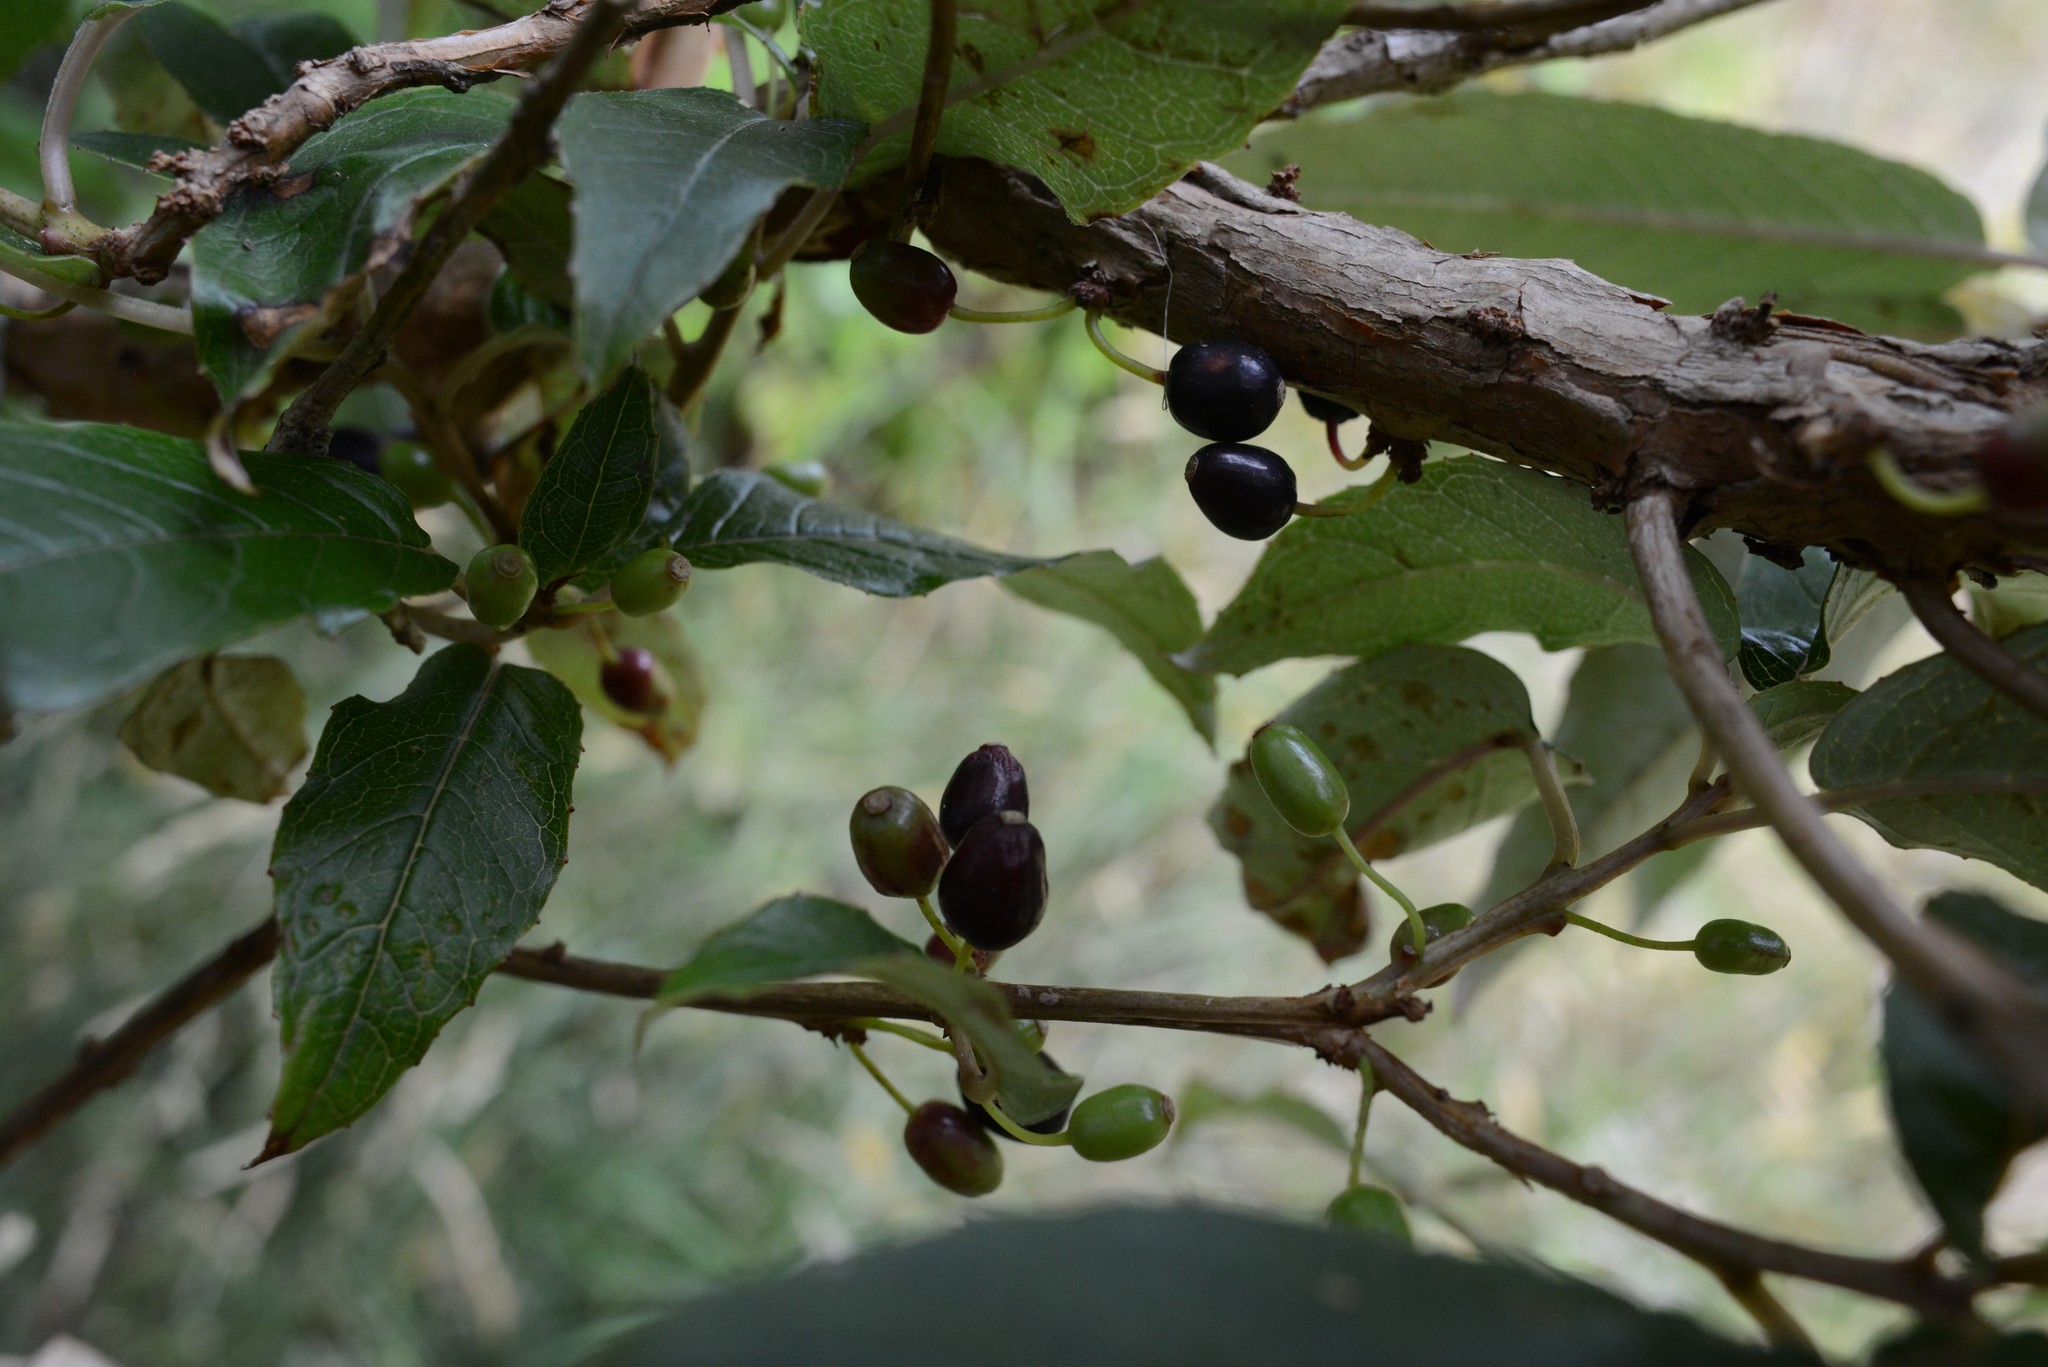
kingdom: Plantae
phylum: Tracheophyta
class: Magnoliopsida
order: Myrtales
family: Onagraceae
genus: Fuchsia
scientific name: Fuchsia excorticata
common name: Tree fuchsia
